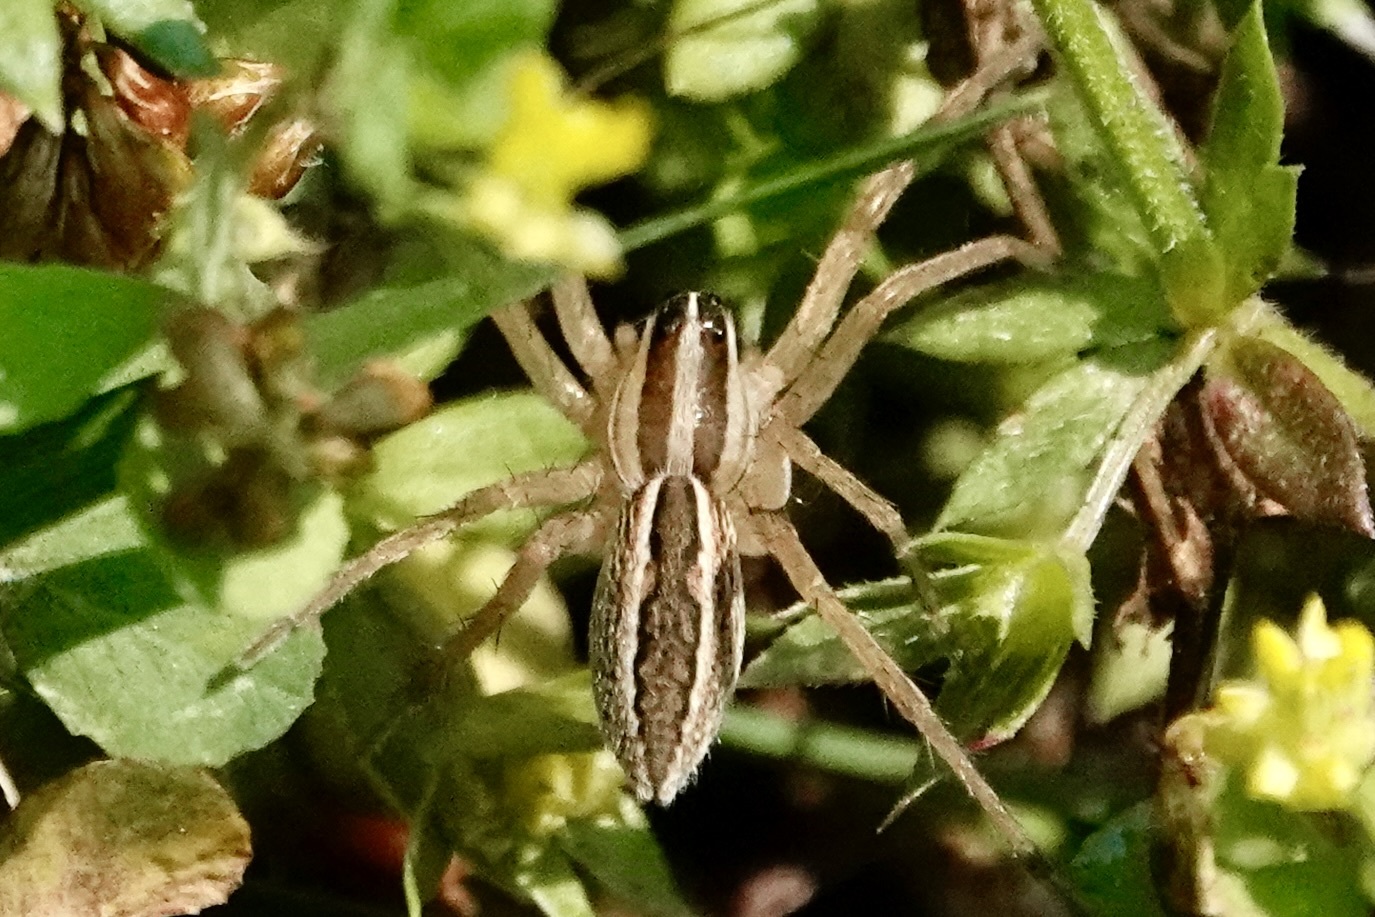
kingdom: Animalia
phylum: Arthropoda
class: Arachnida
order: Araneae
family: Lycosidae
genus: Rabidosa
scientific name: Rabidosa rabida
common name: Rabid wolf spider
